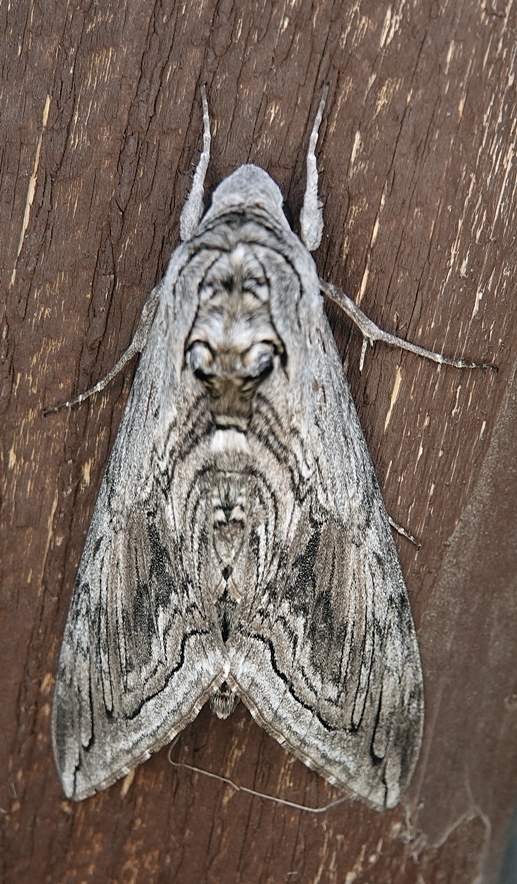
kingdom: Animalia
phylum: Arthropoda
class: Insecta
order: Lepidoptera
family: Sphingidae
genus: Manduca
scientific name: Manduca quinquemaculatus
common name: Five-spotted hawk-moth
